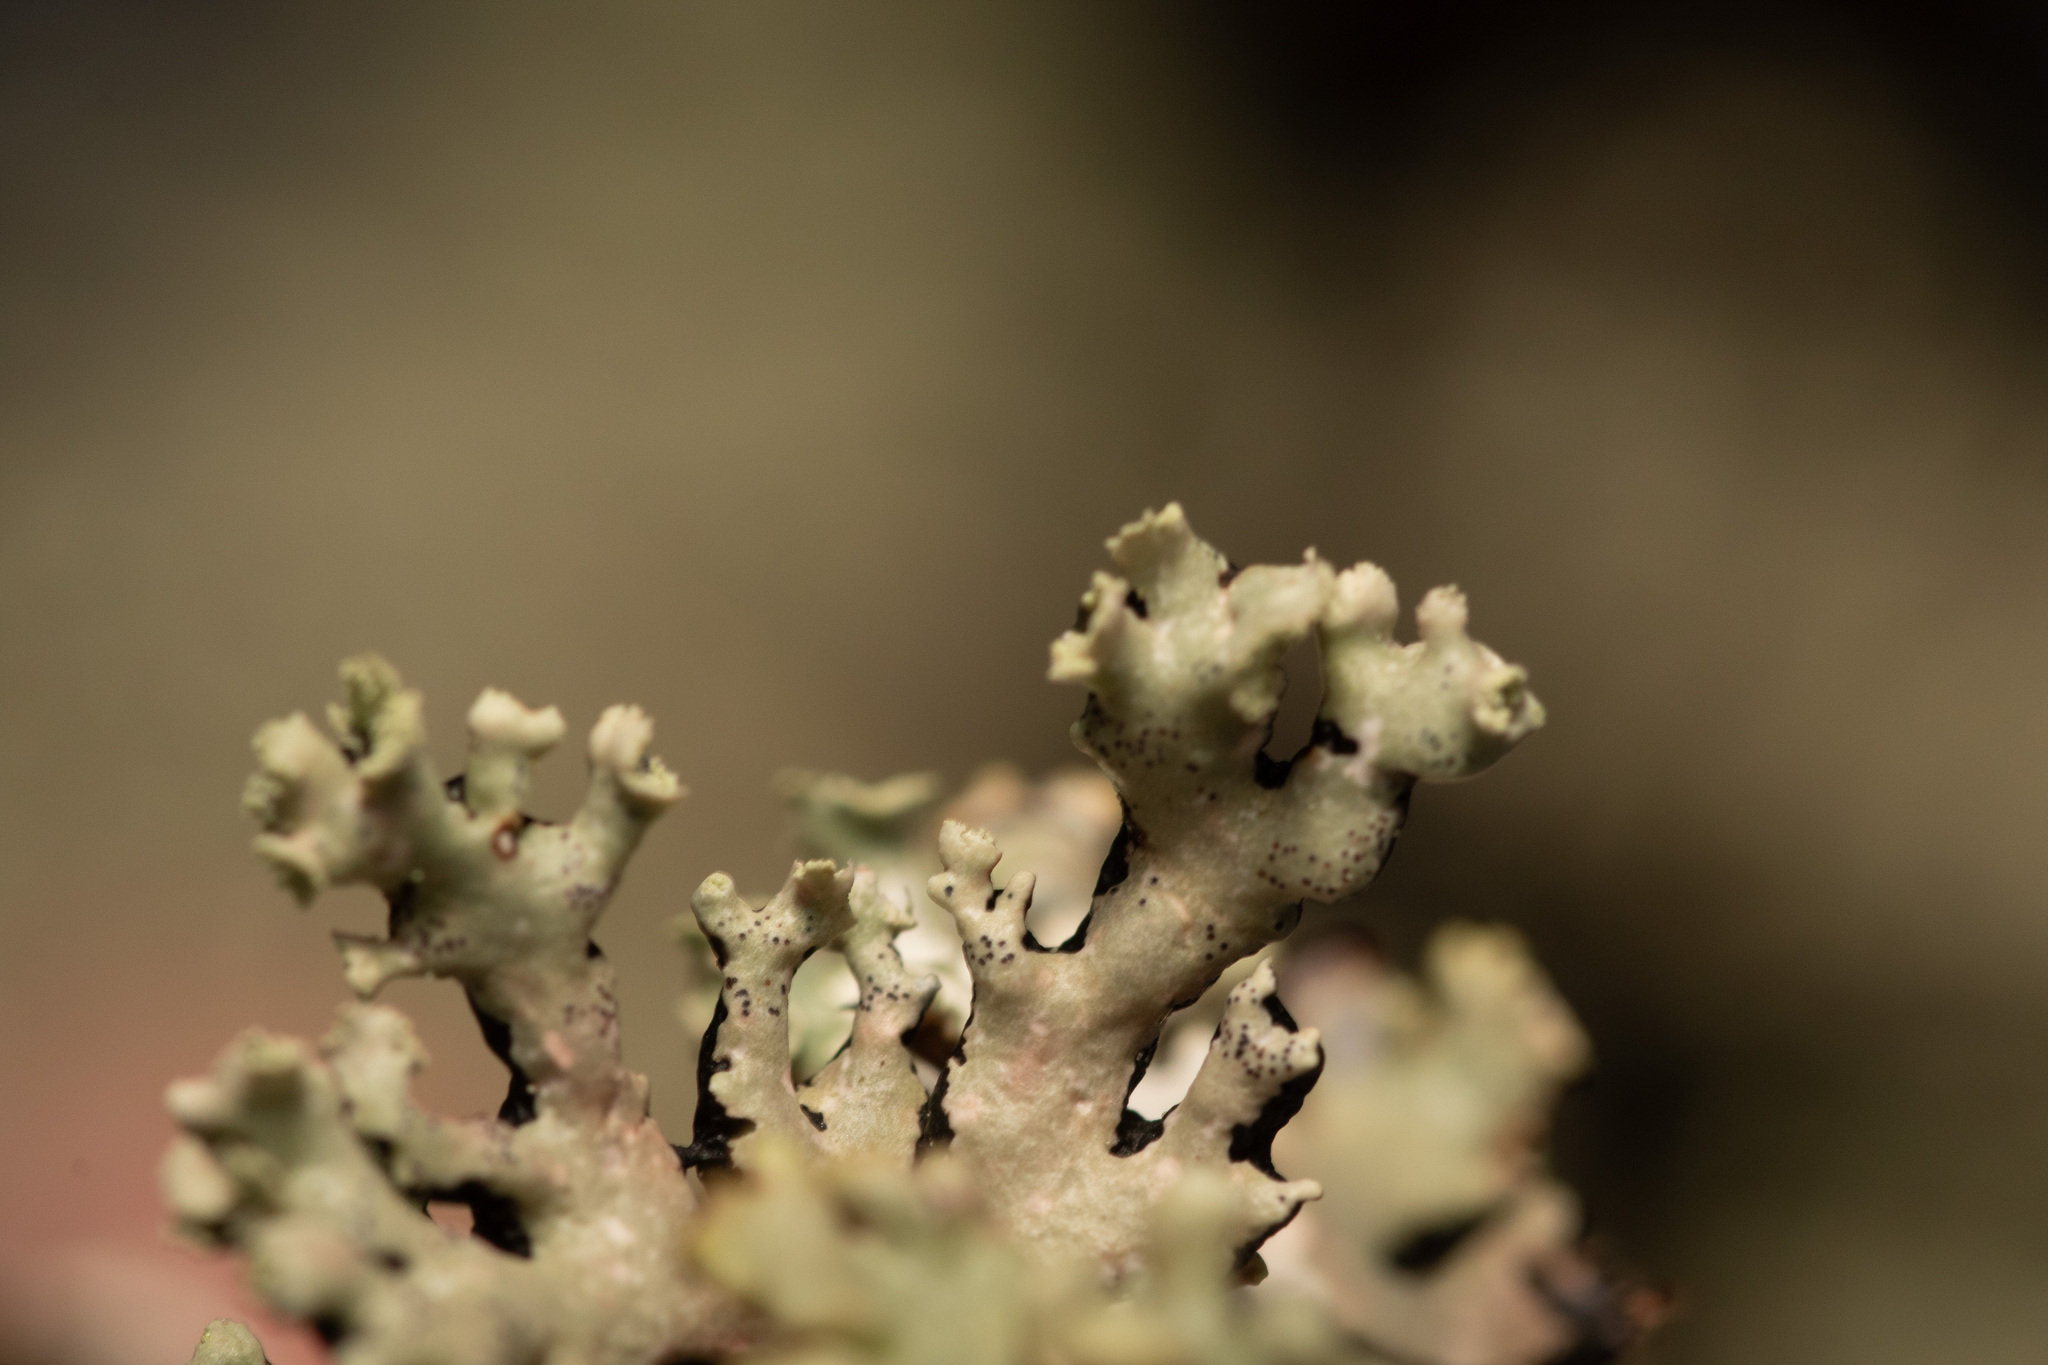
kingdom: Fungi
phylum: Ascomycota
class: Lecanoromycetes
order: Lecanorales
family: Parmeliaceae
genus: Hypogymnia
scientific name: Hypogymnia physodes
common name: Dark crottle
